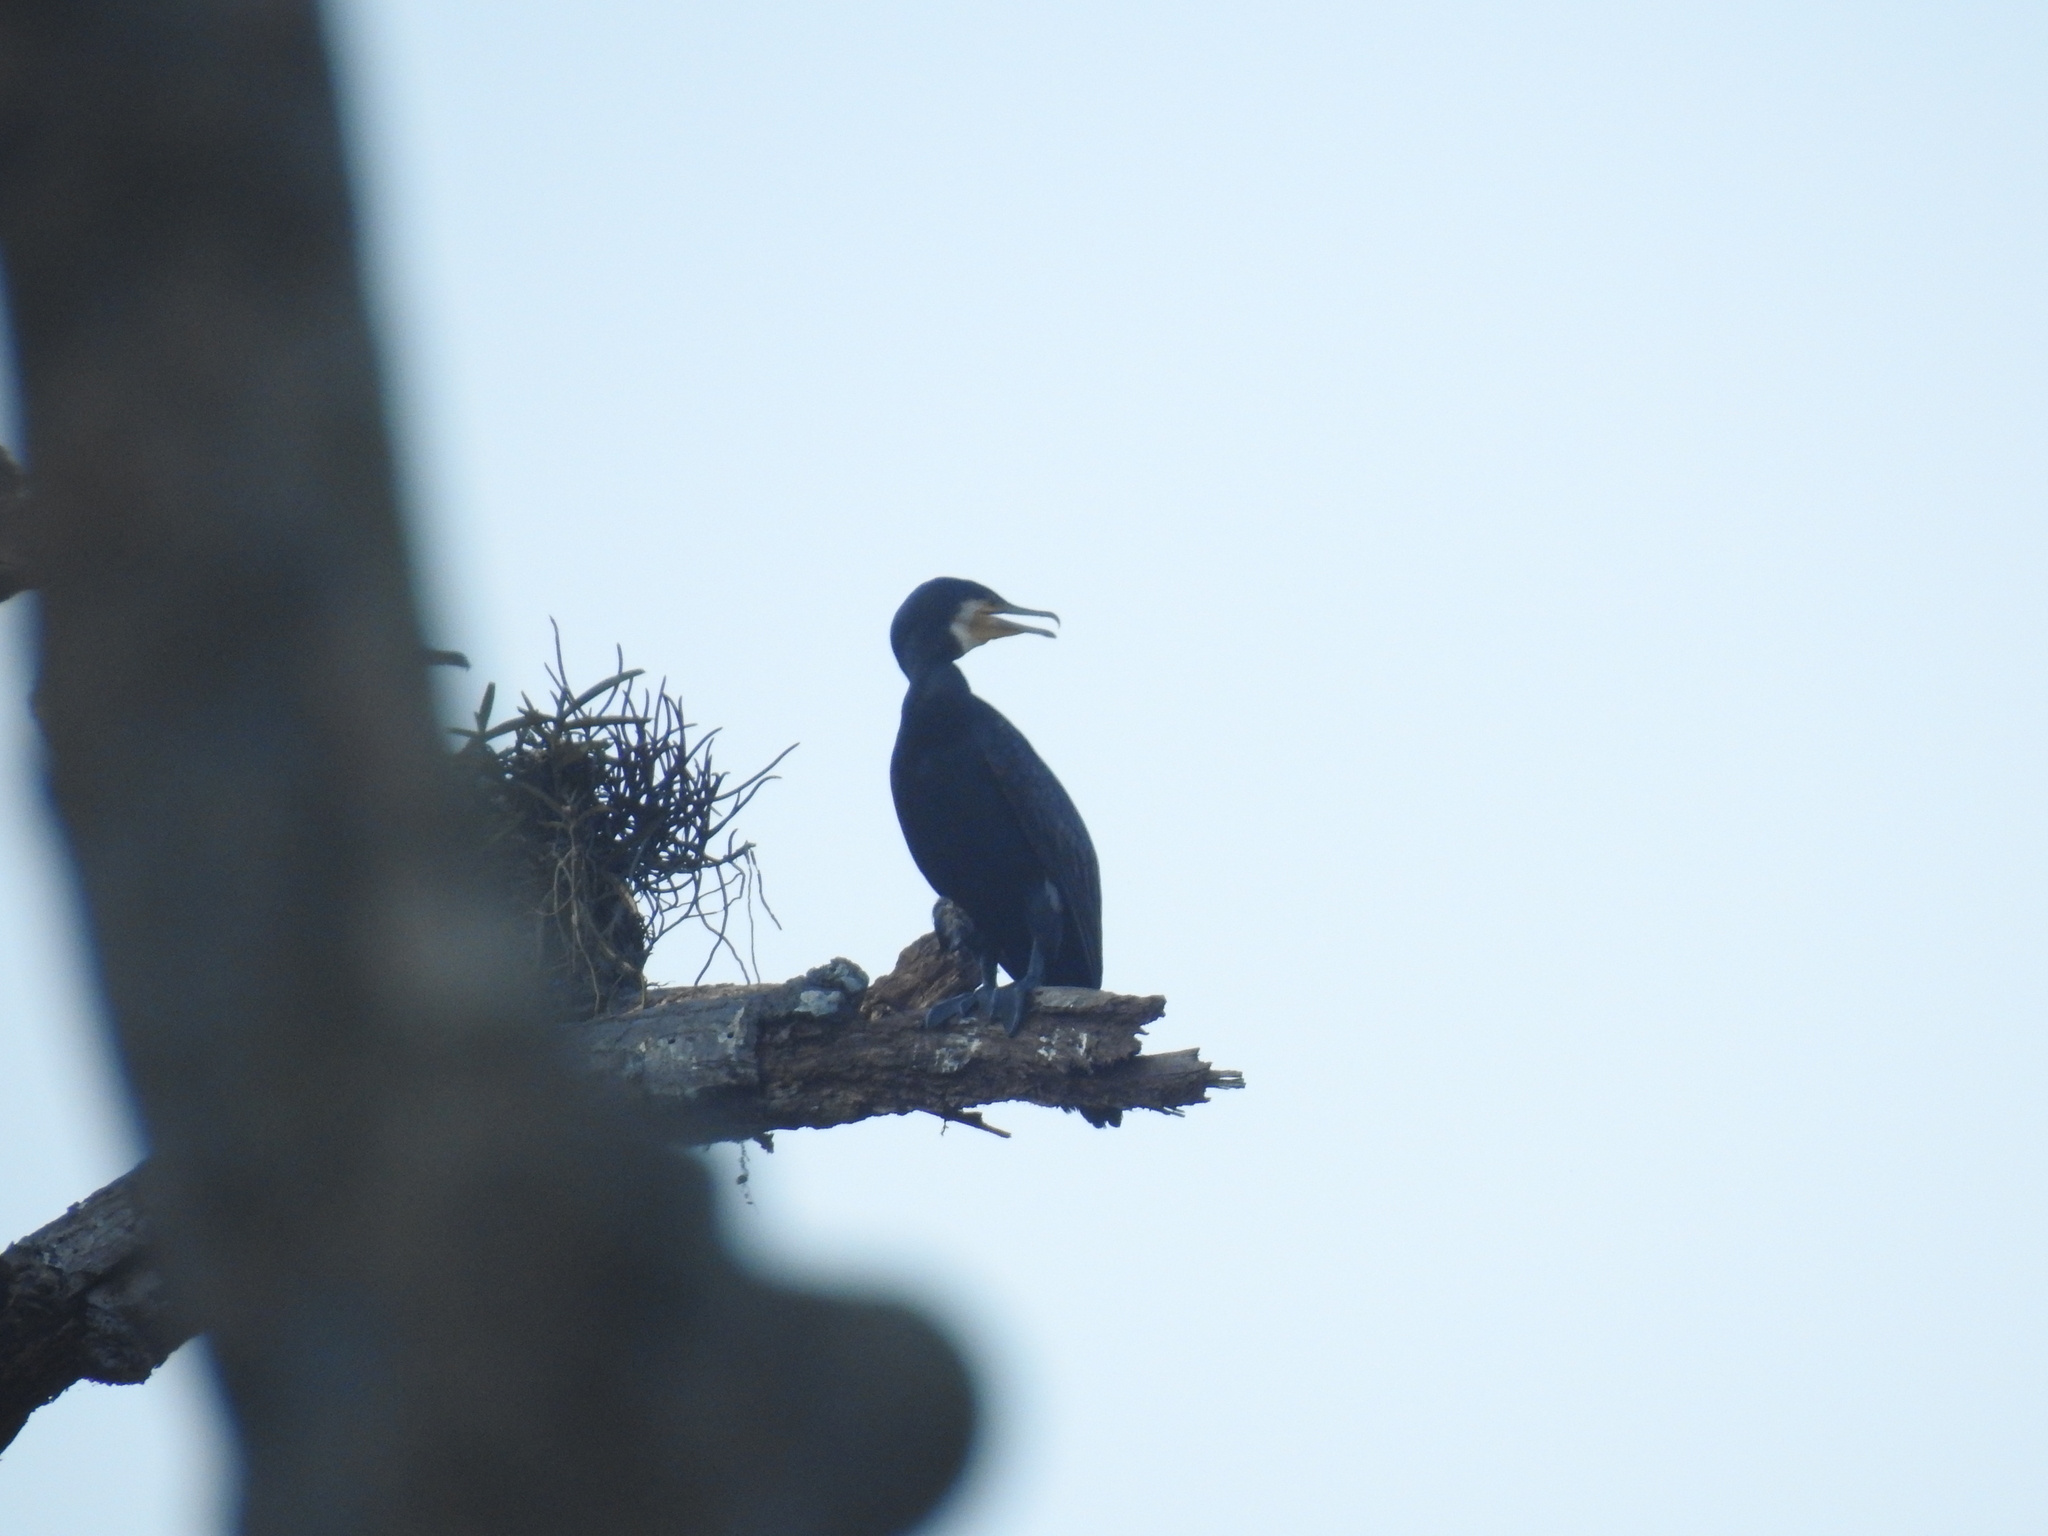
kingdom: Animalia
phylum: Chordata
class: Aves
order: Suliformes
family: Phalacrocoracidae
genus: Phalacrocorax
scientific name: Phalacrocorax carbo
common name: Great cormorant
